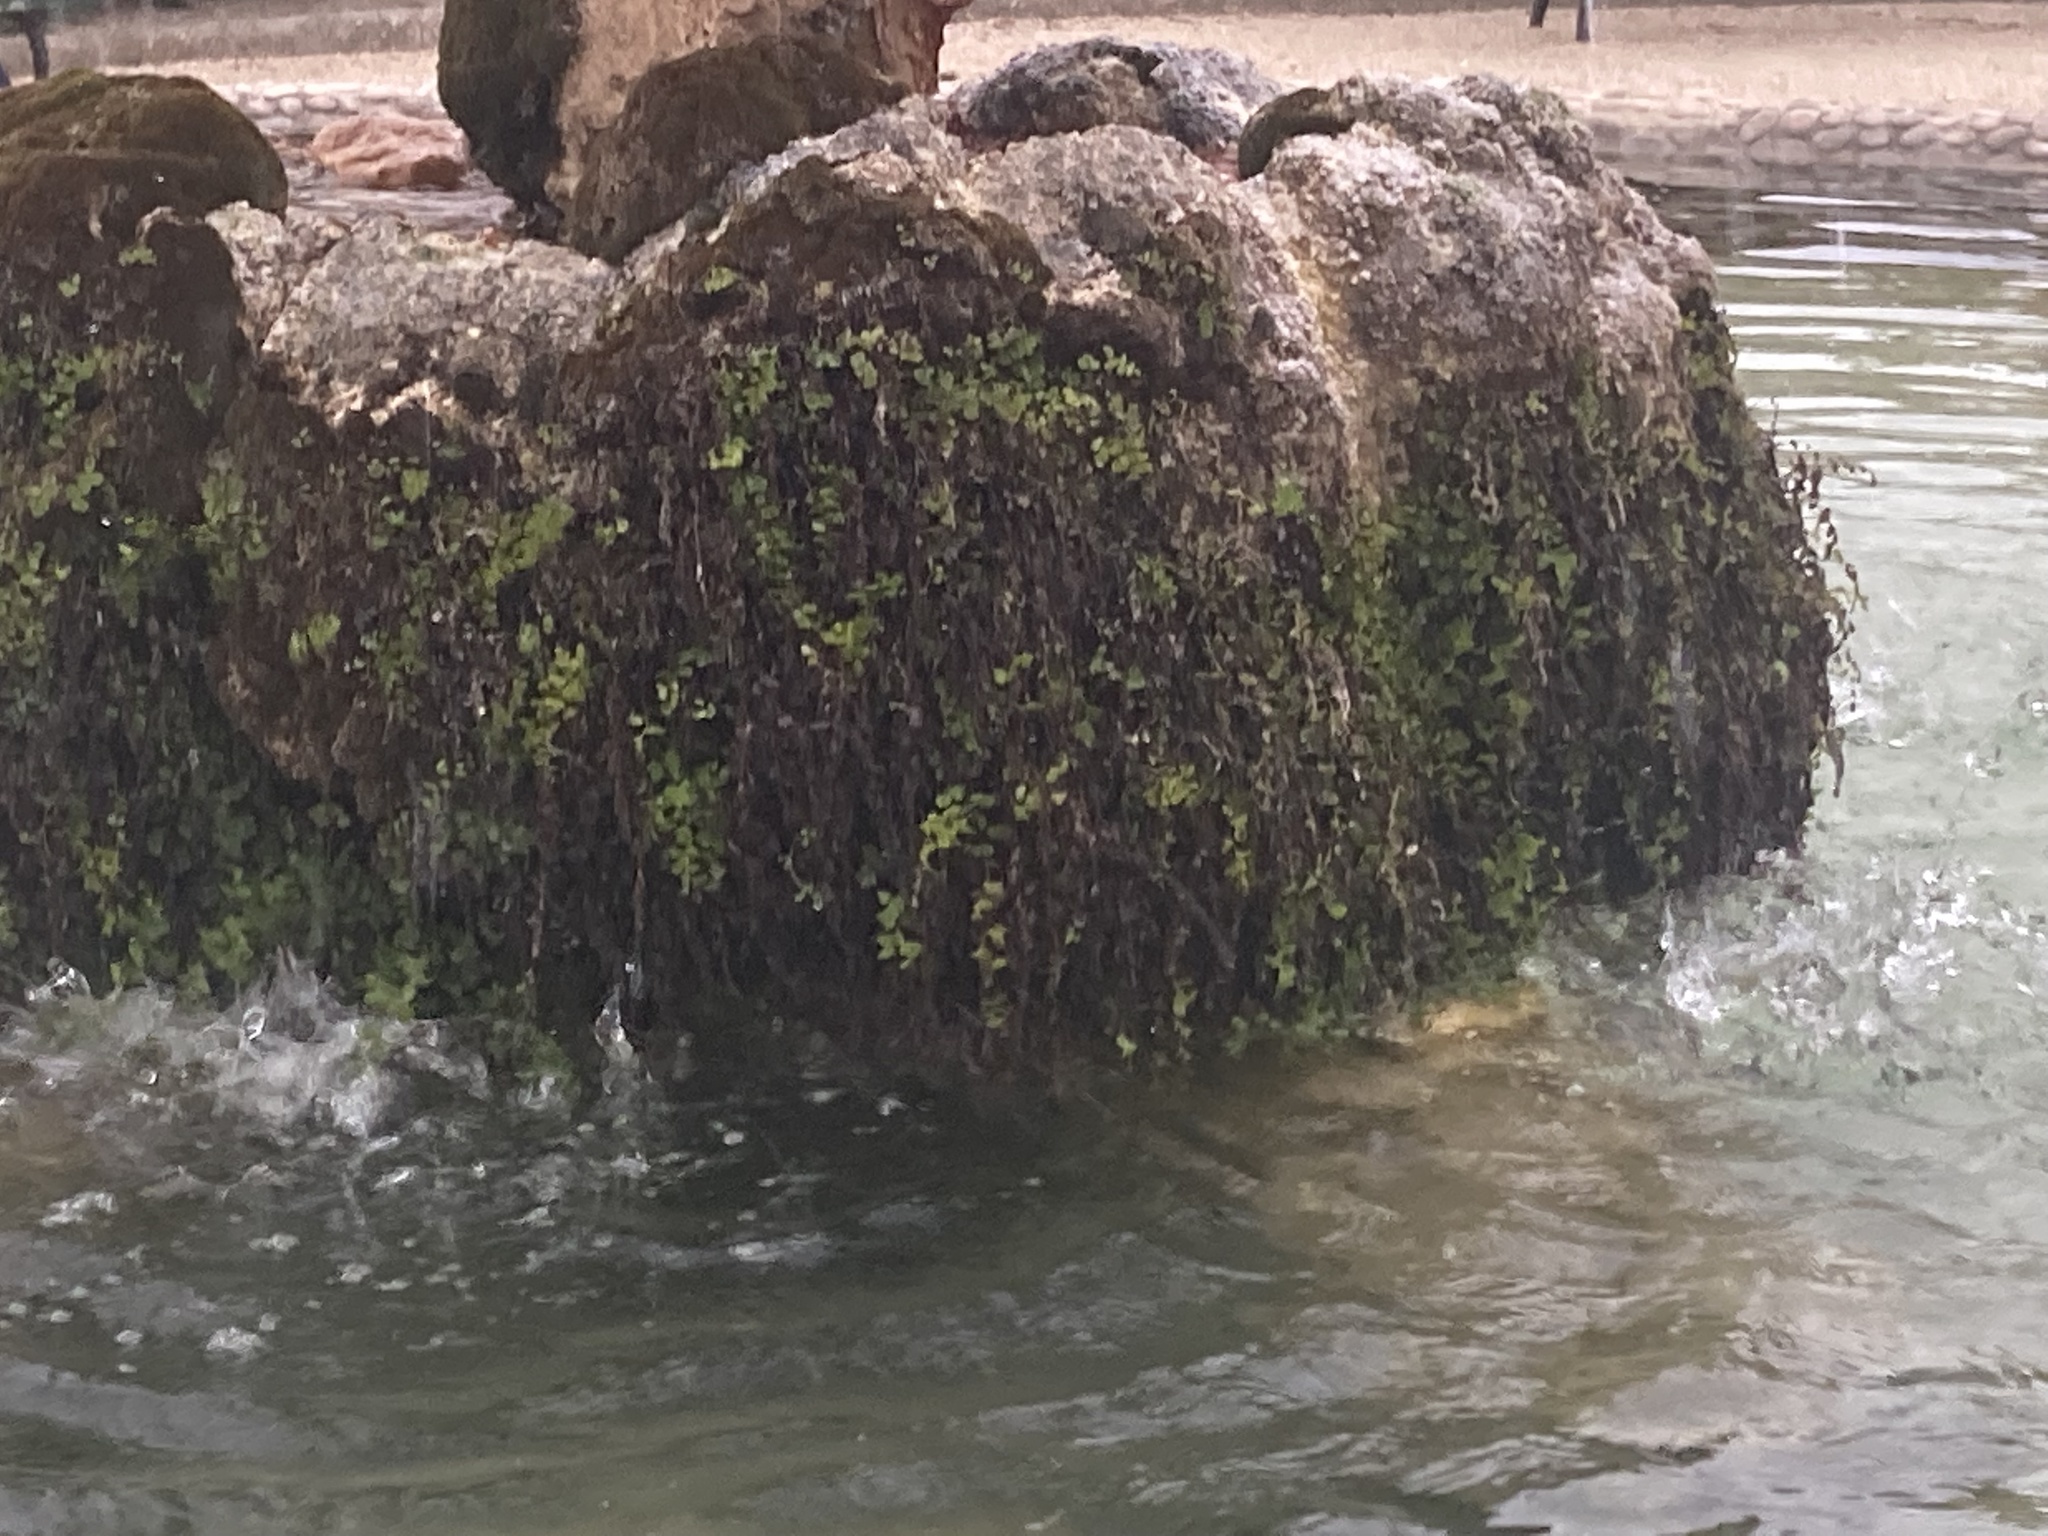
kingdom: Plantae
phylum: Tracheophyta
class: Polypodiopsida
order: Polypodiales
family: Pteridaceae
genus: Adiantum
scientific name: Adiantum capillus-veneris
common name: Maidenhair fern
